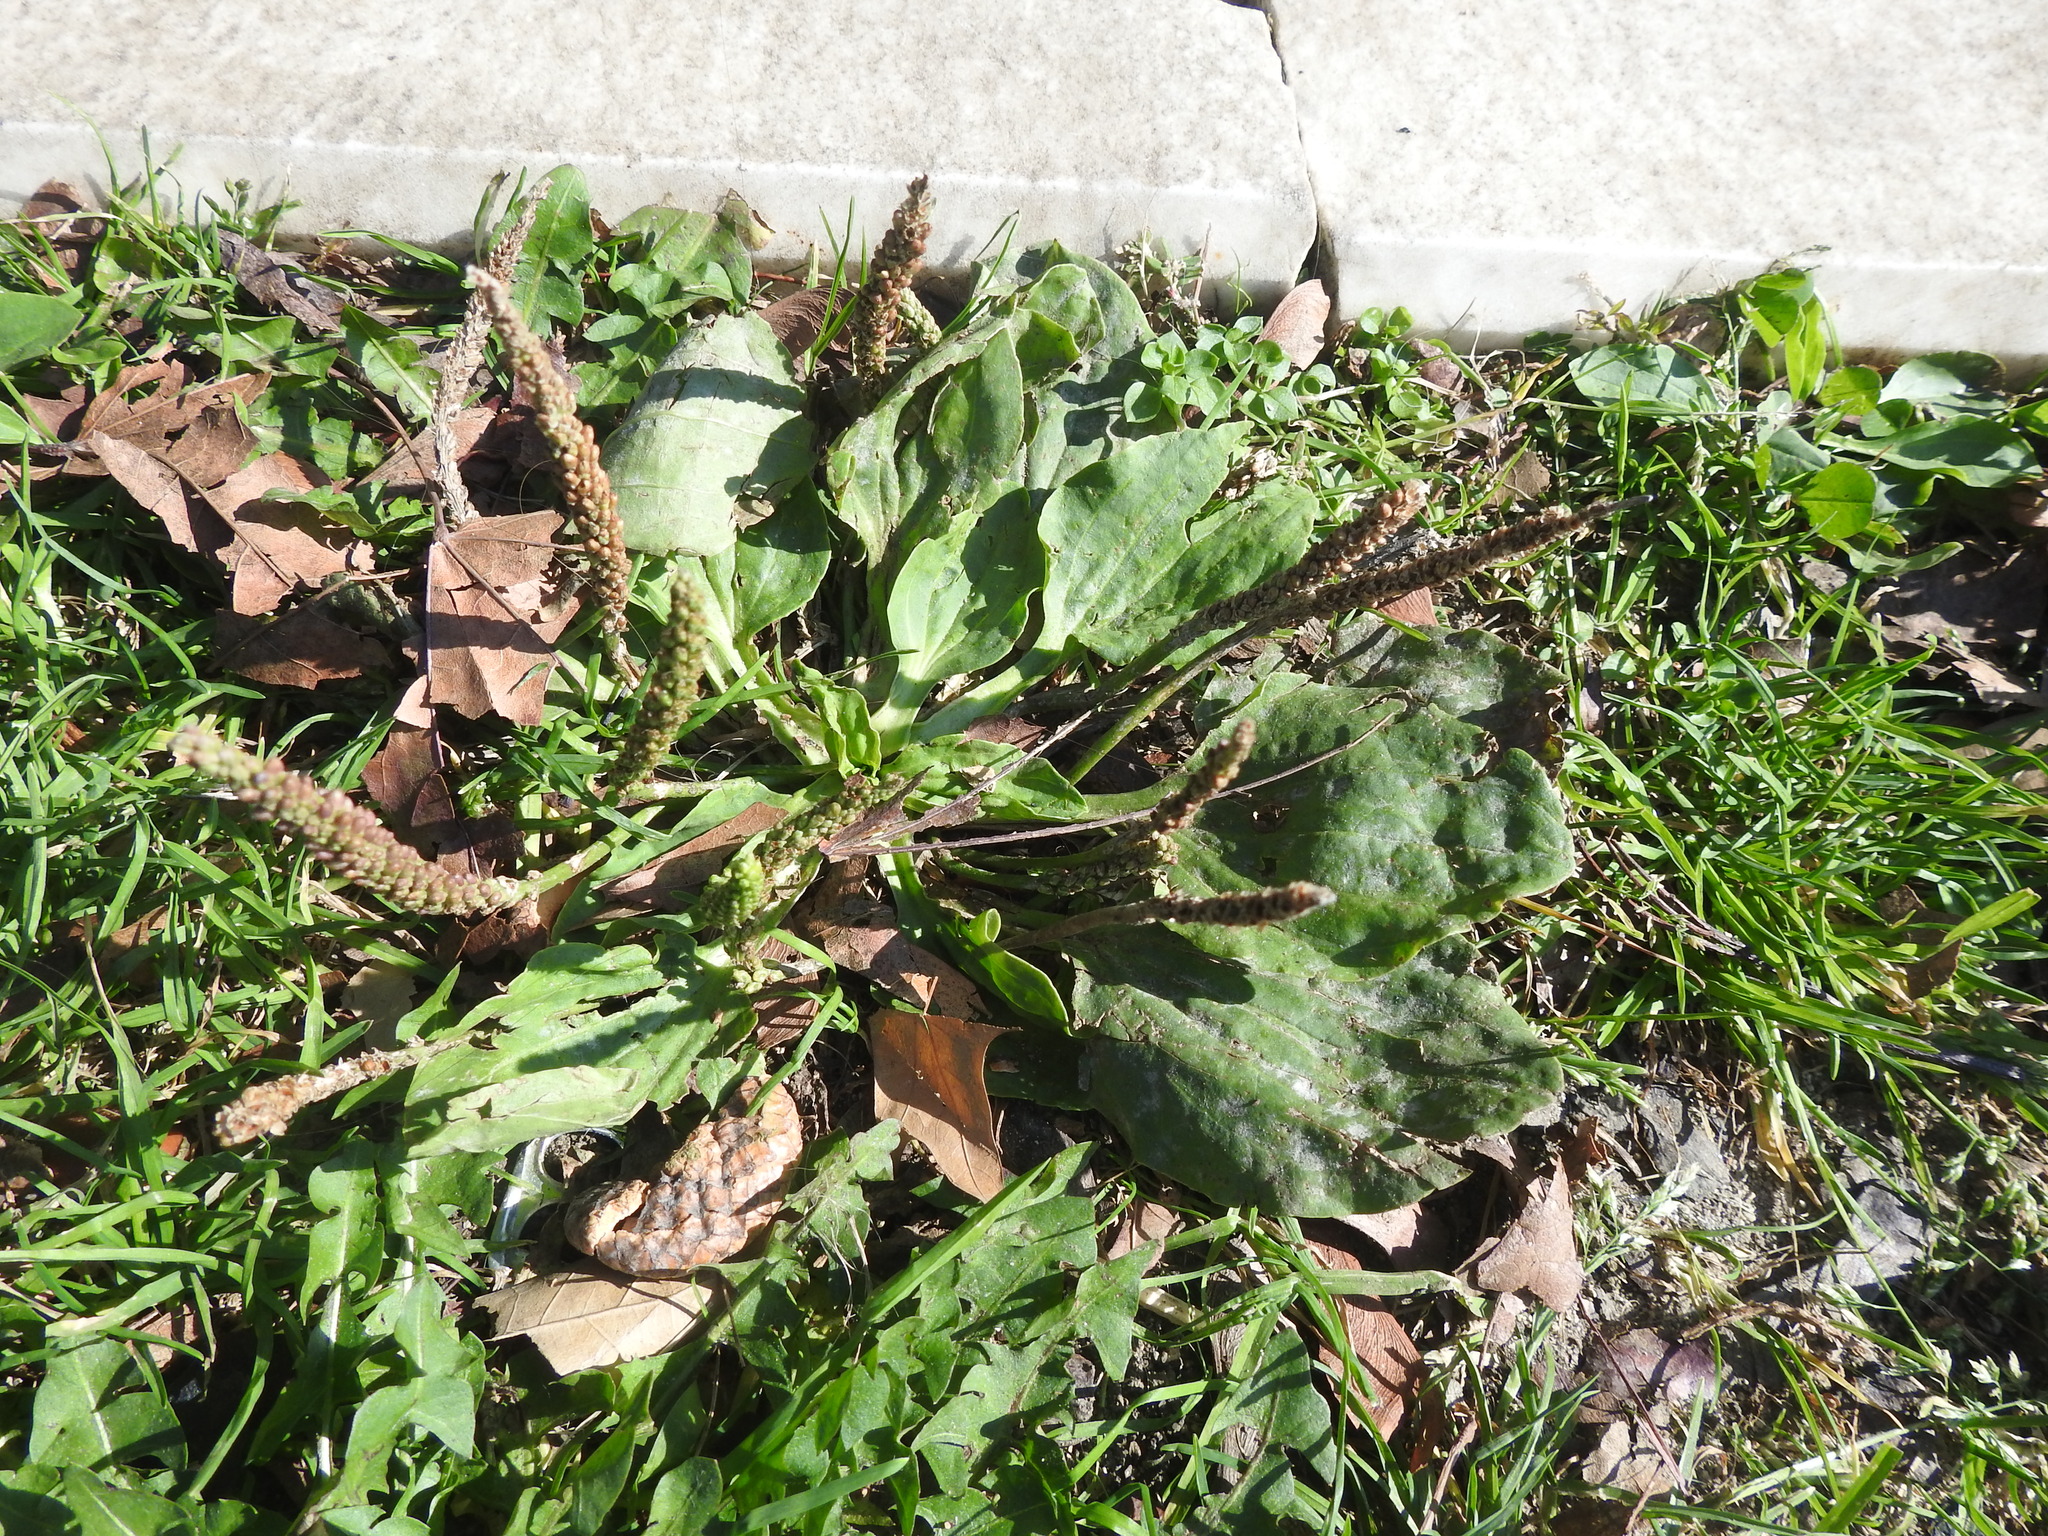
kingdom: Plantae
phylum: Tracheophyta
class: Magnoliopsida
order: Lamiales
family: Plantaginaceae
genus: Plantago
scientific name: Plantago major
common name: Common plantain
